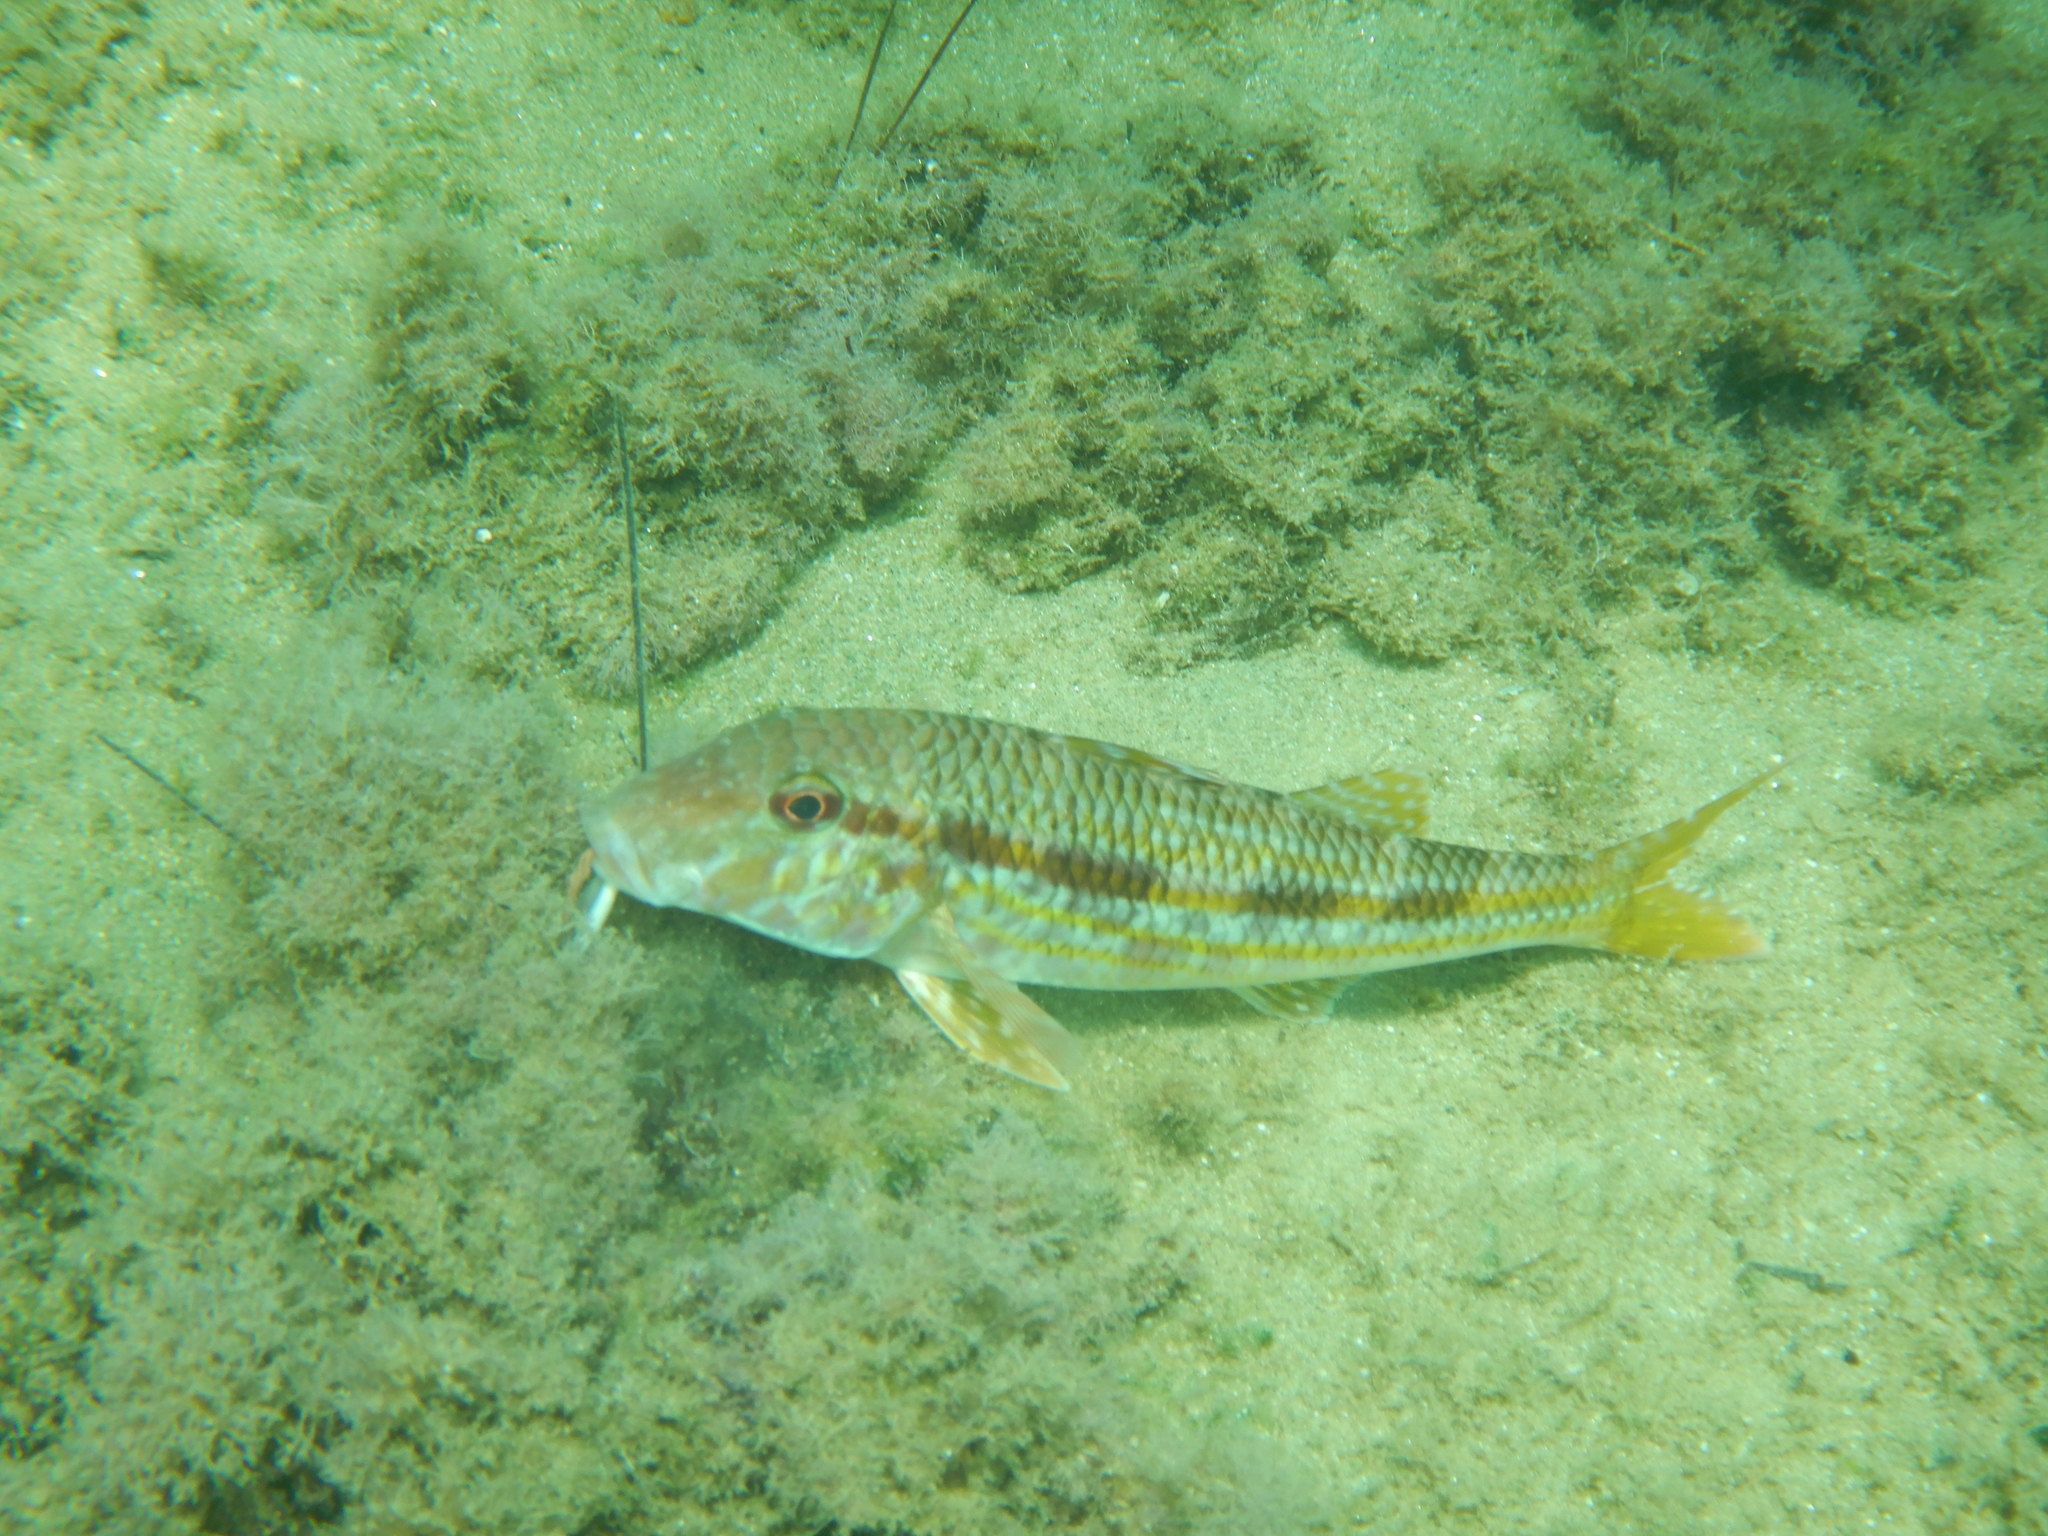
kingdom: Animalia
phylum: Chordata
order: Perciformes
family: Mullidae
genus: Mullus
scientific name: Mullus surmuletus
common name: Red mullet
